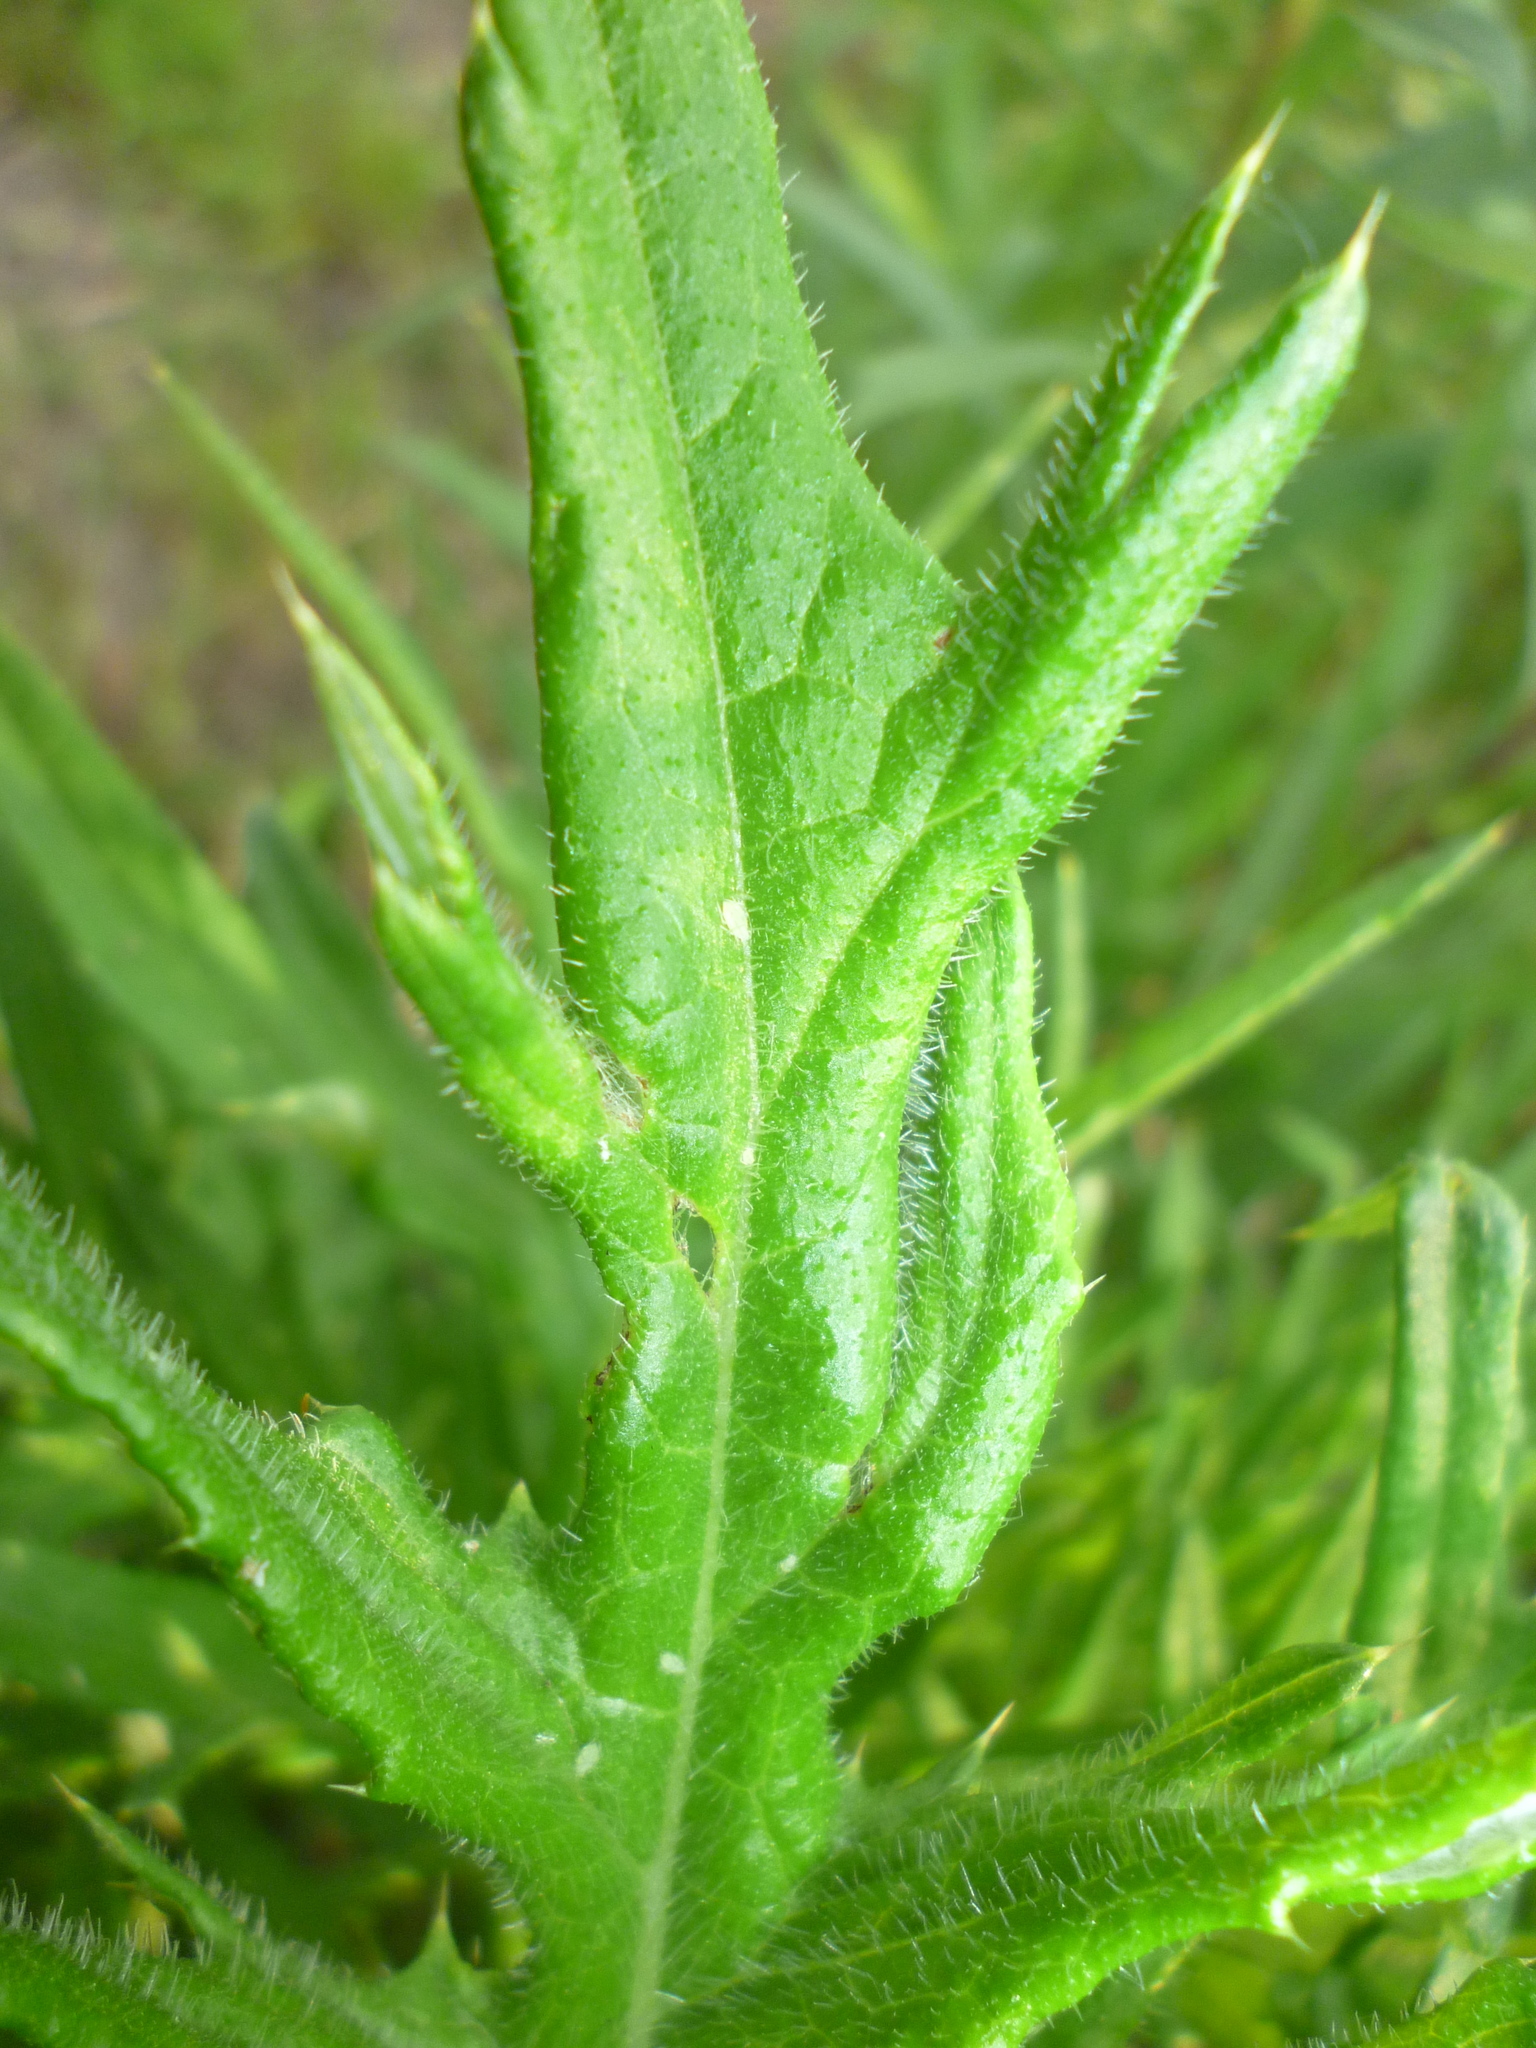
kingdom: Plantae
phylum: Tracheophyta
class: Magnoliopsida
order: Asterales
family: Asteraceae
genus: Cirsium
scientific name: Cirsium vulgare
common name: Bull thistle
